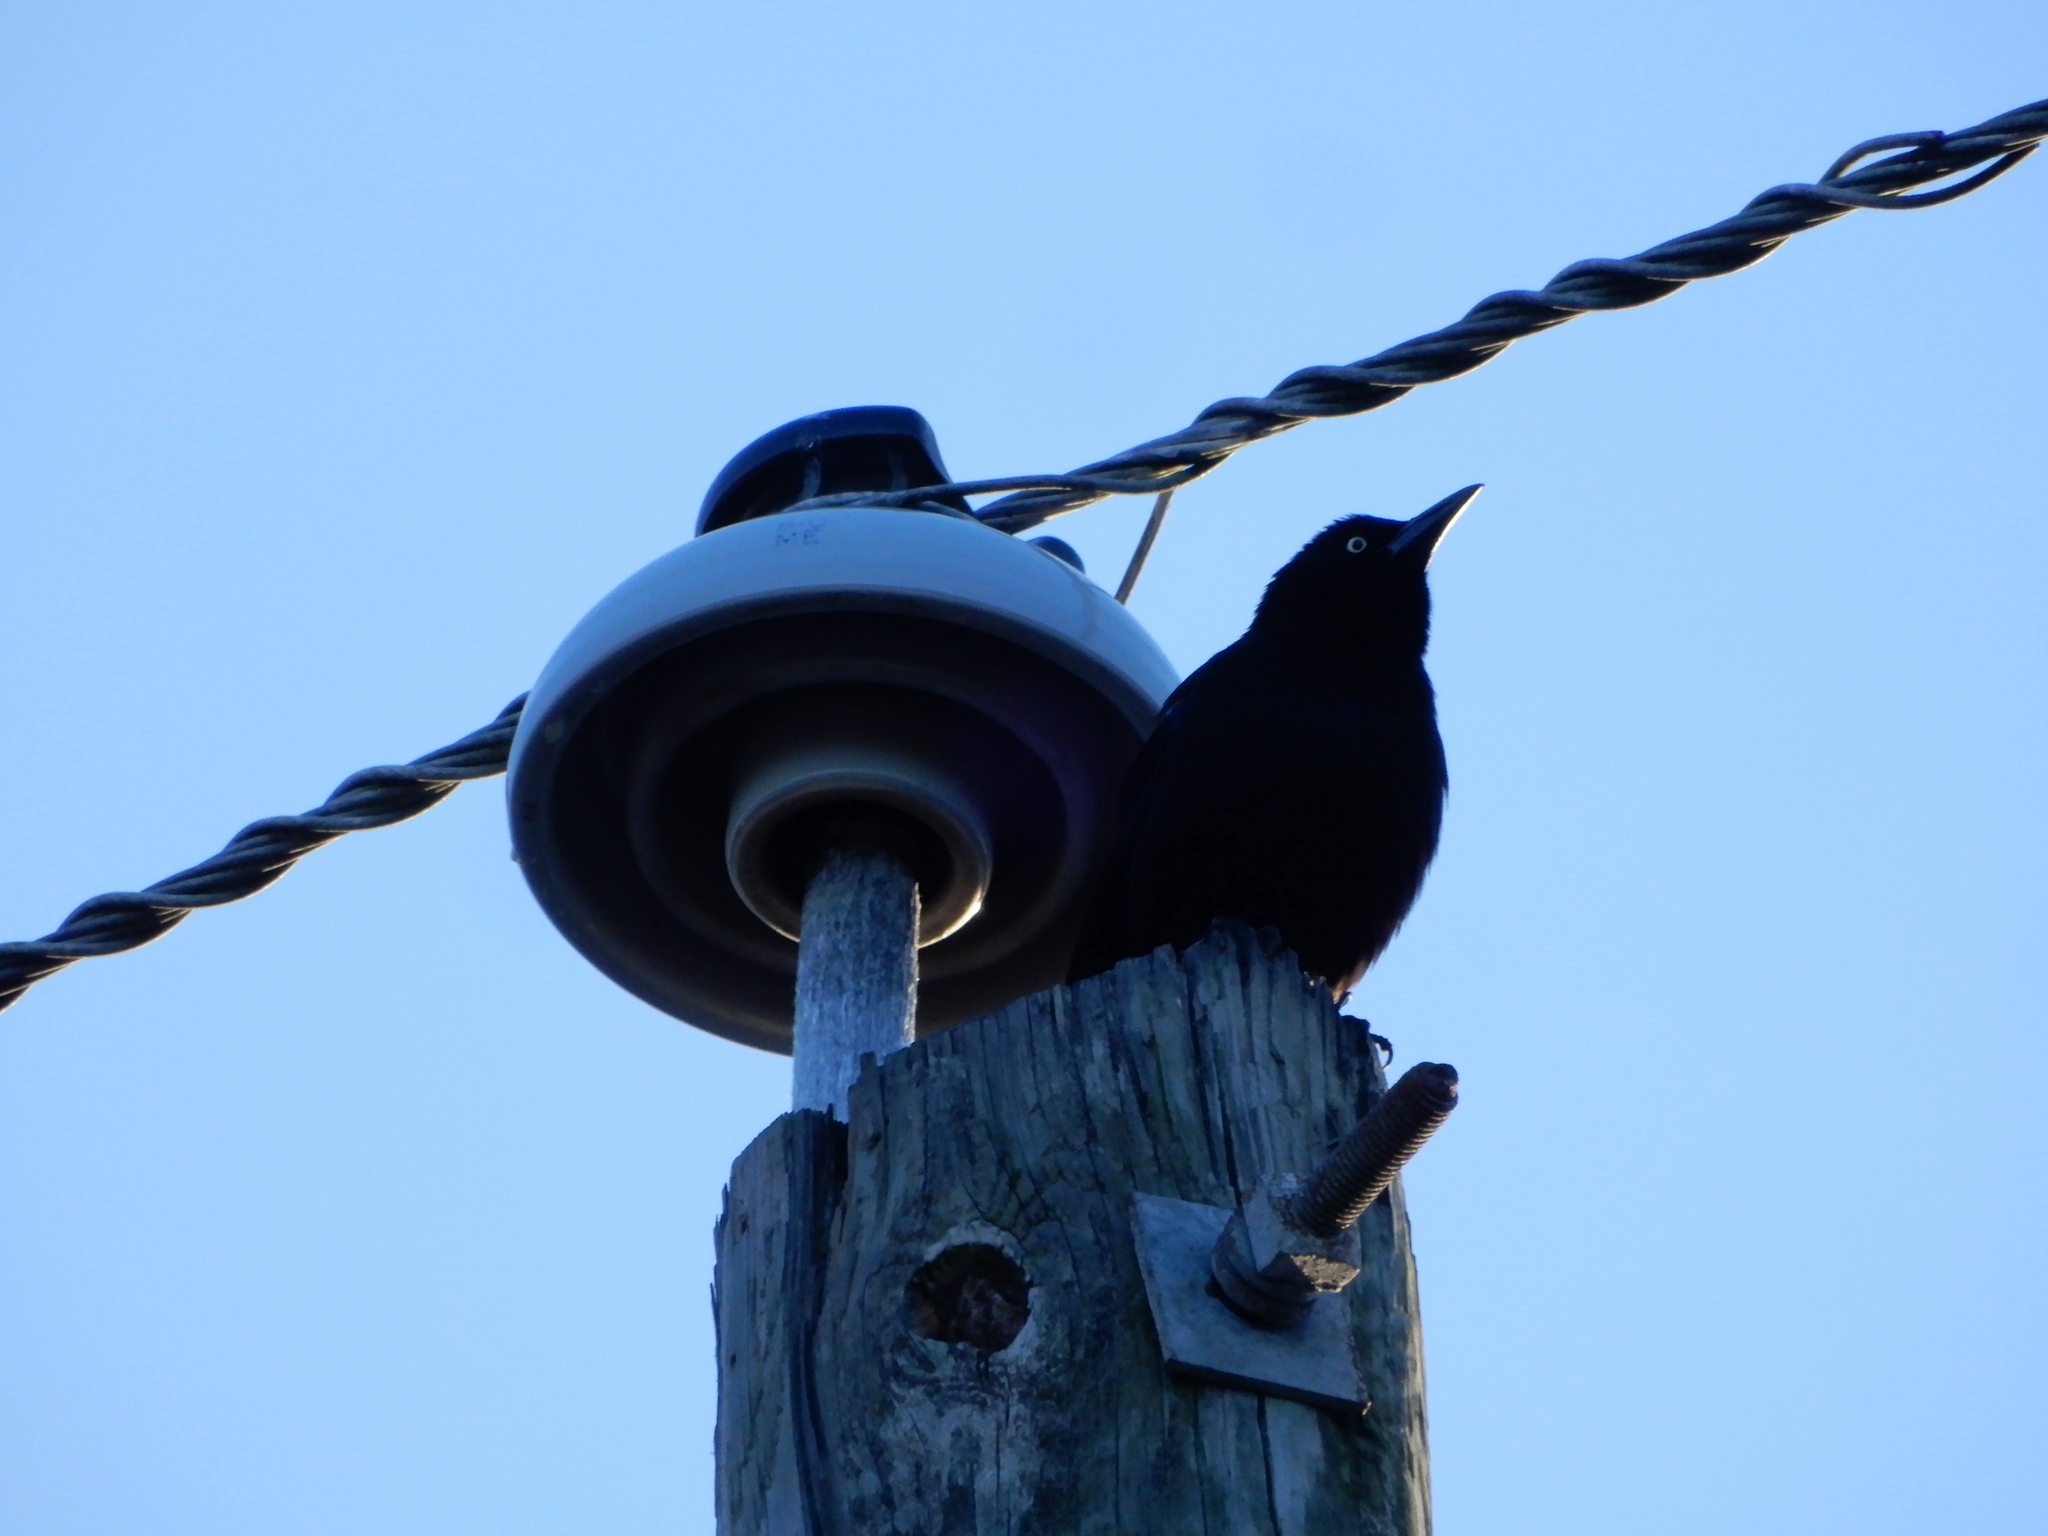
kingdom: Animalia
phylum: Chordata
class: Aves
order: Passeriformes
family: Icteridae
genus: Quiscalus
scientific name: Quiscalus quiscula
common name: Common grackle
